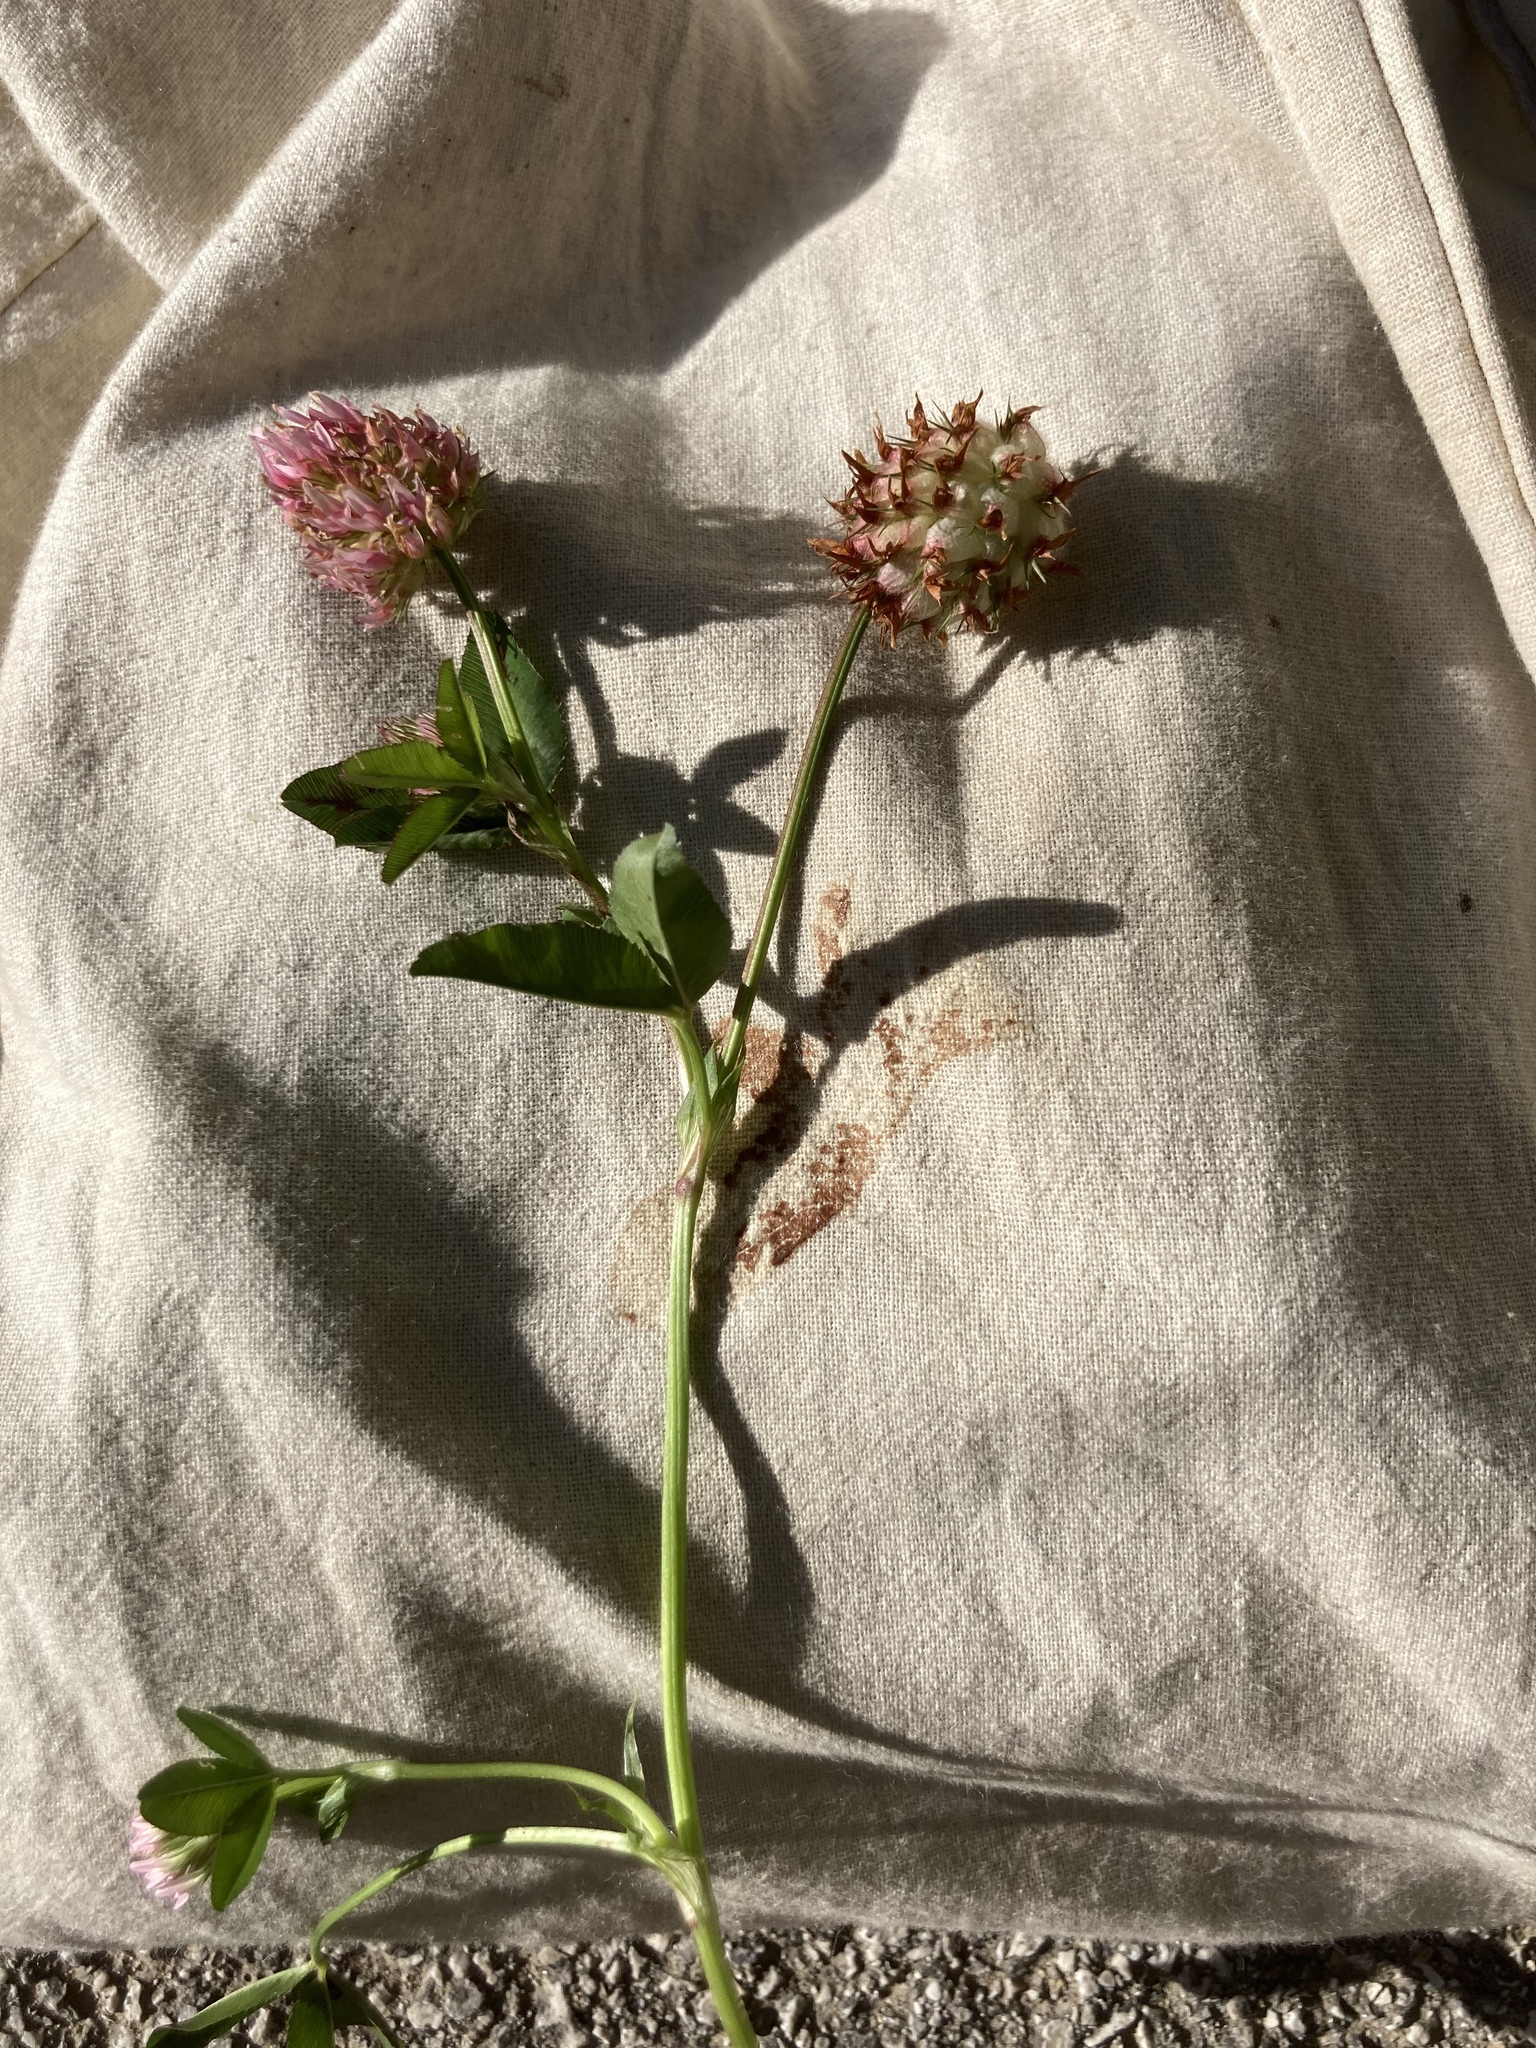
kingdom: Plantae
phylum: Tracheophyta
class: Magnoliopsida
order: Fabales
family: Fabaceae
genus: Trifolium
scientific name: Trifolium physodes
